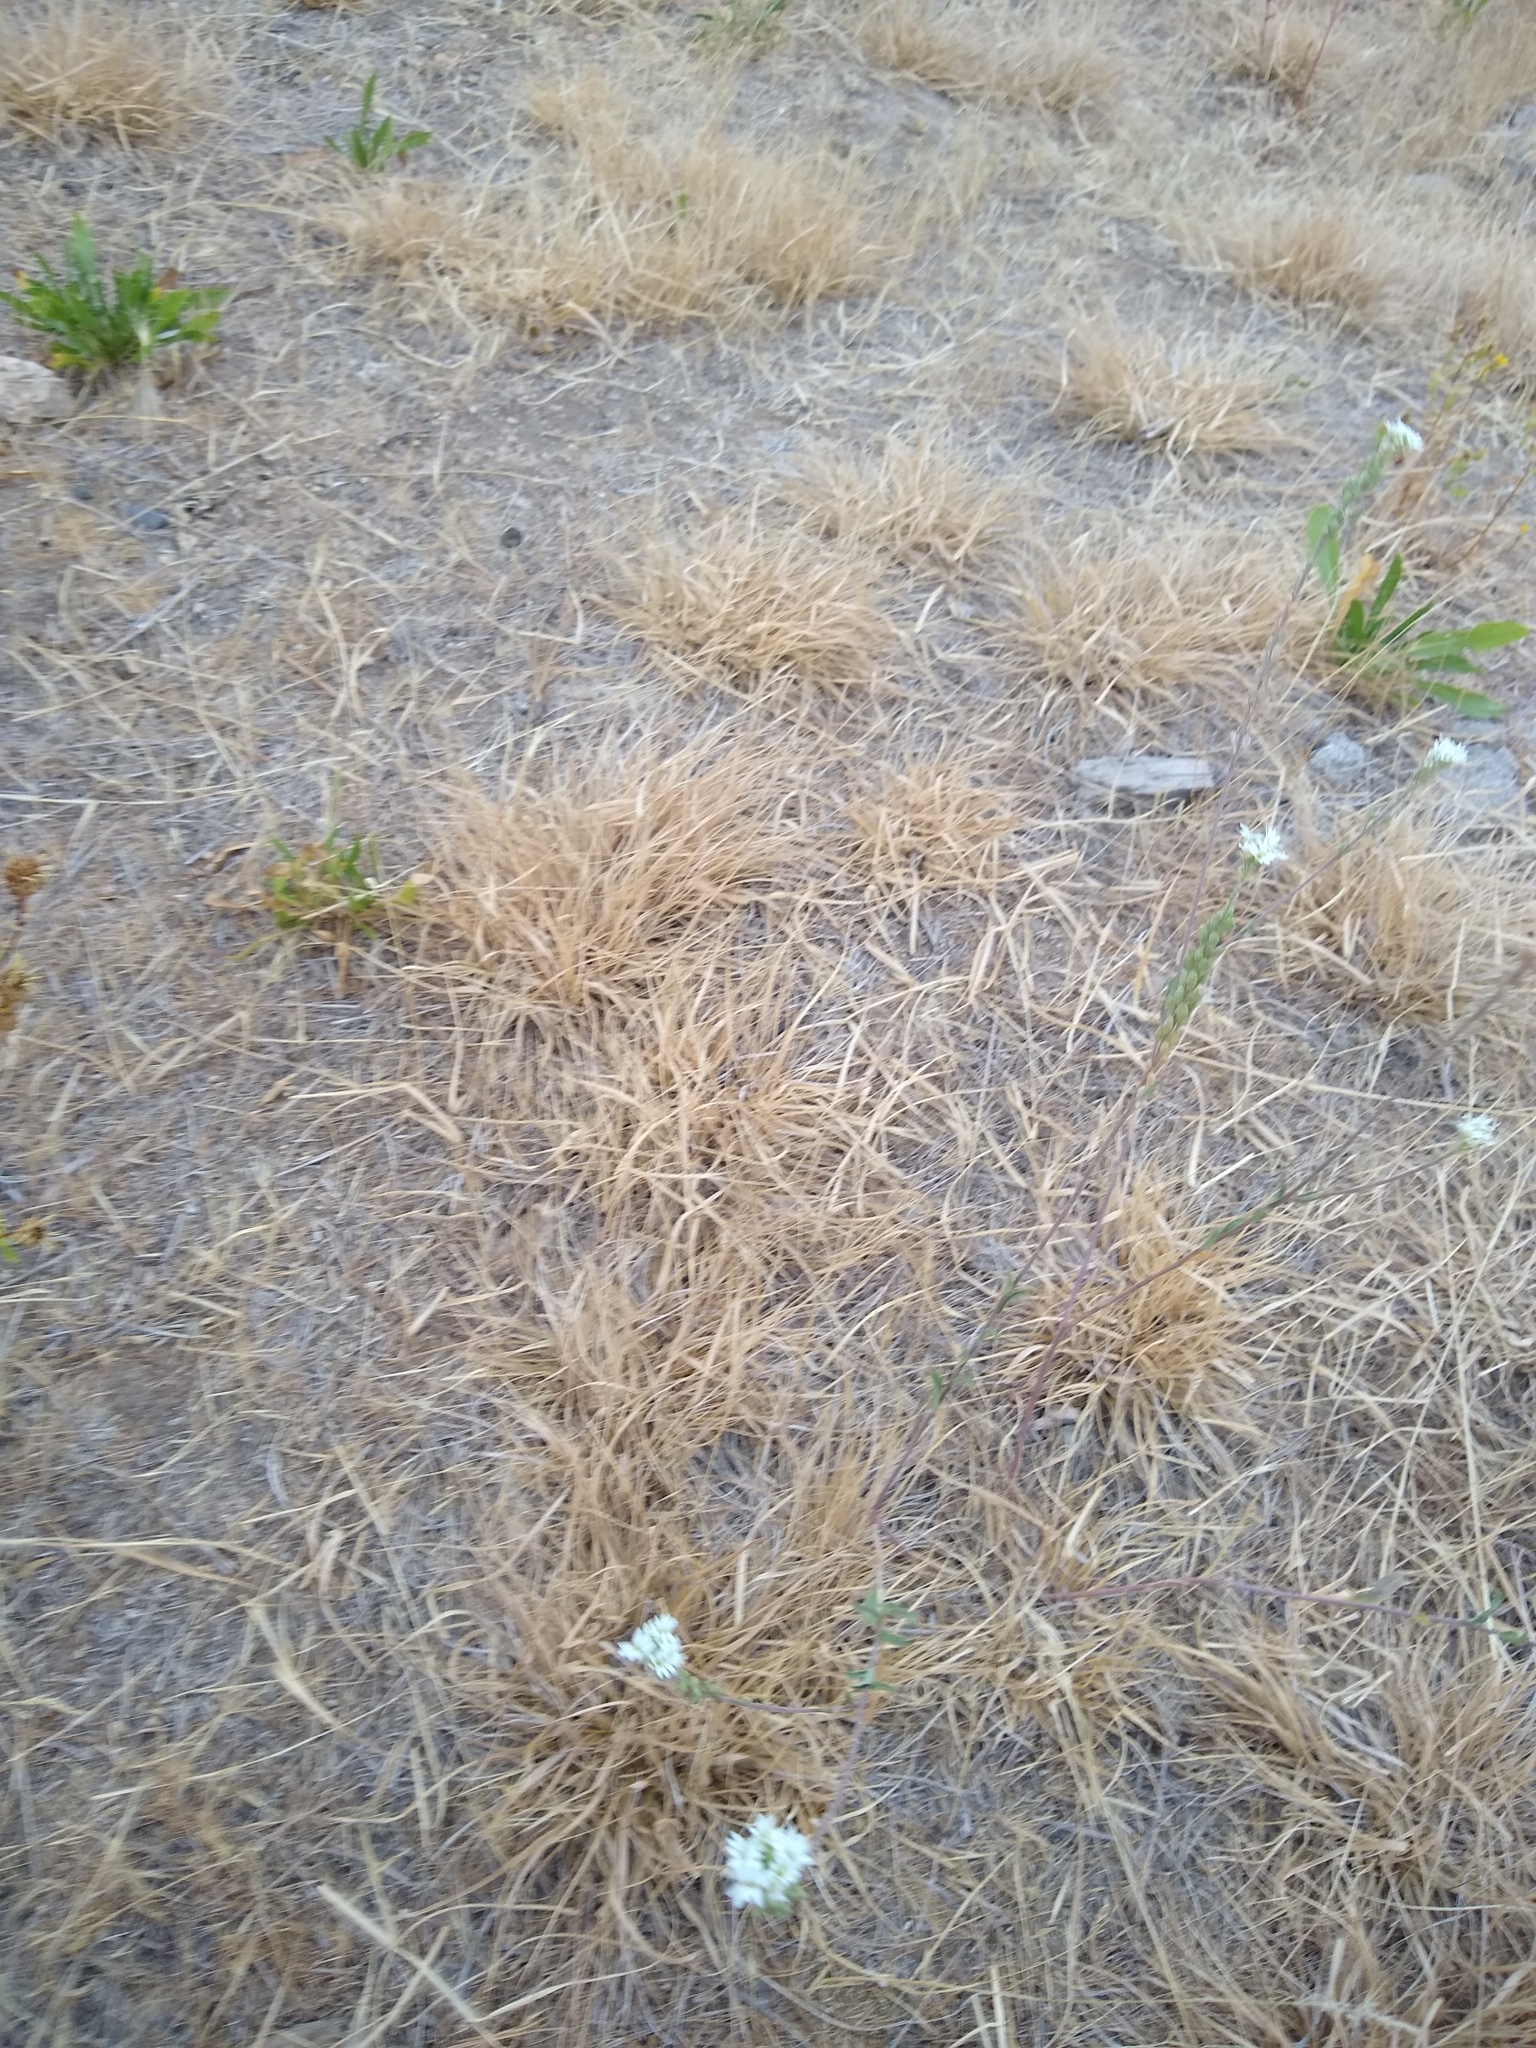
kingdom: Plantae
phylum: Tracheophyta
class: Magnoliopsida
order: Brassicales
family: Brassicaceae
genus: Berteroa
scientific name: Berteroa incana
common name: Hoary alison
